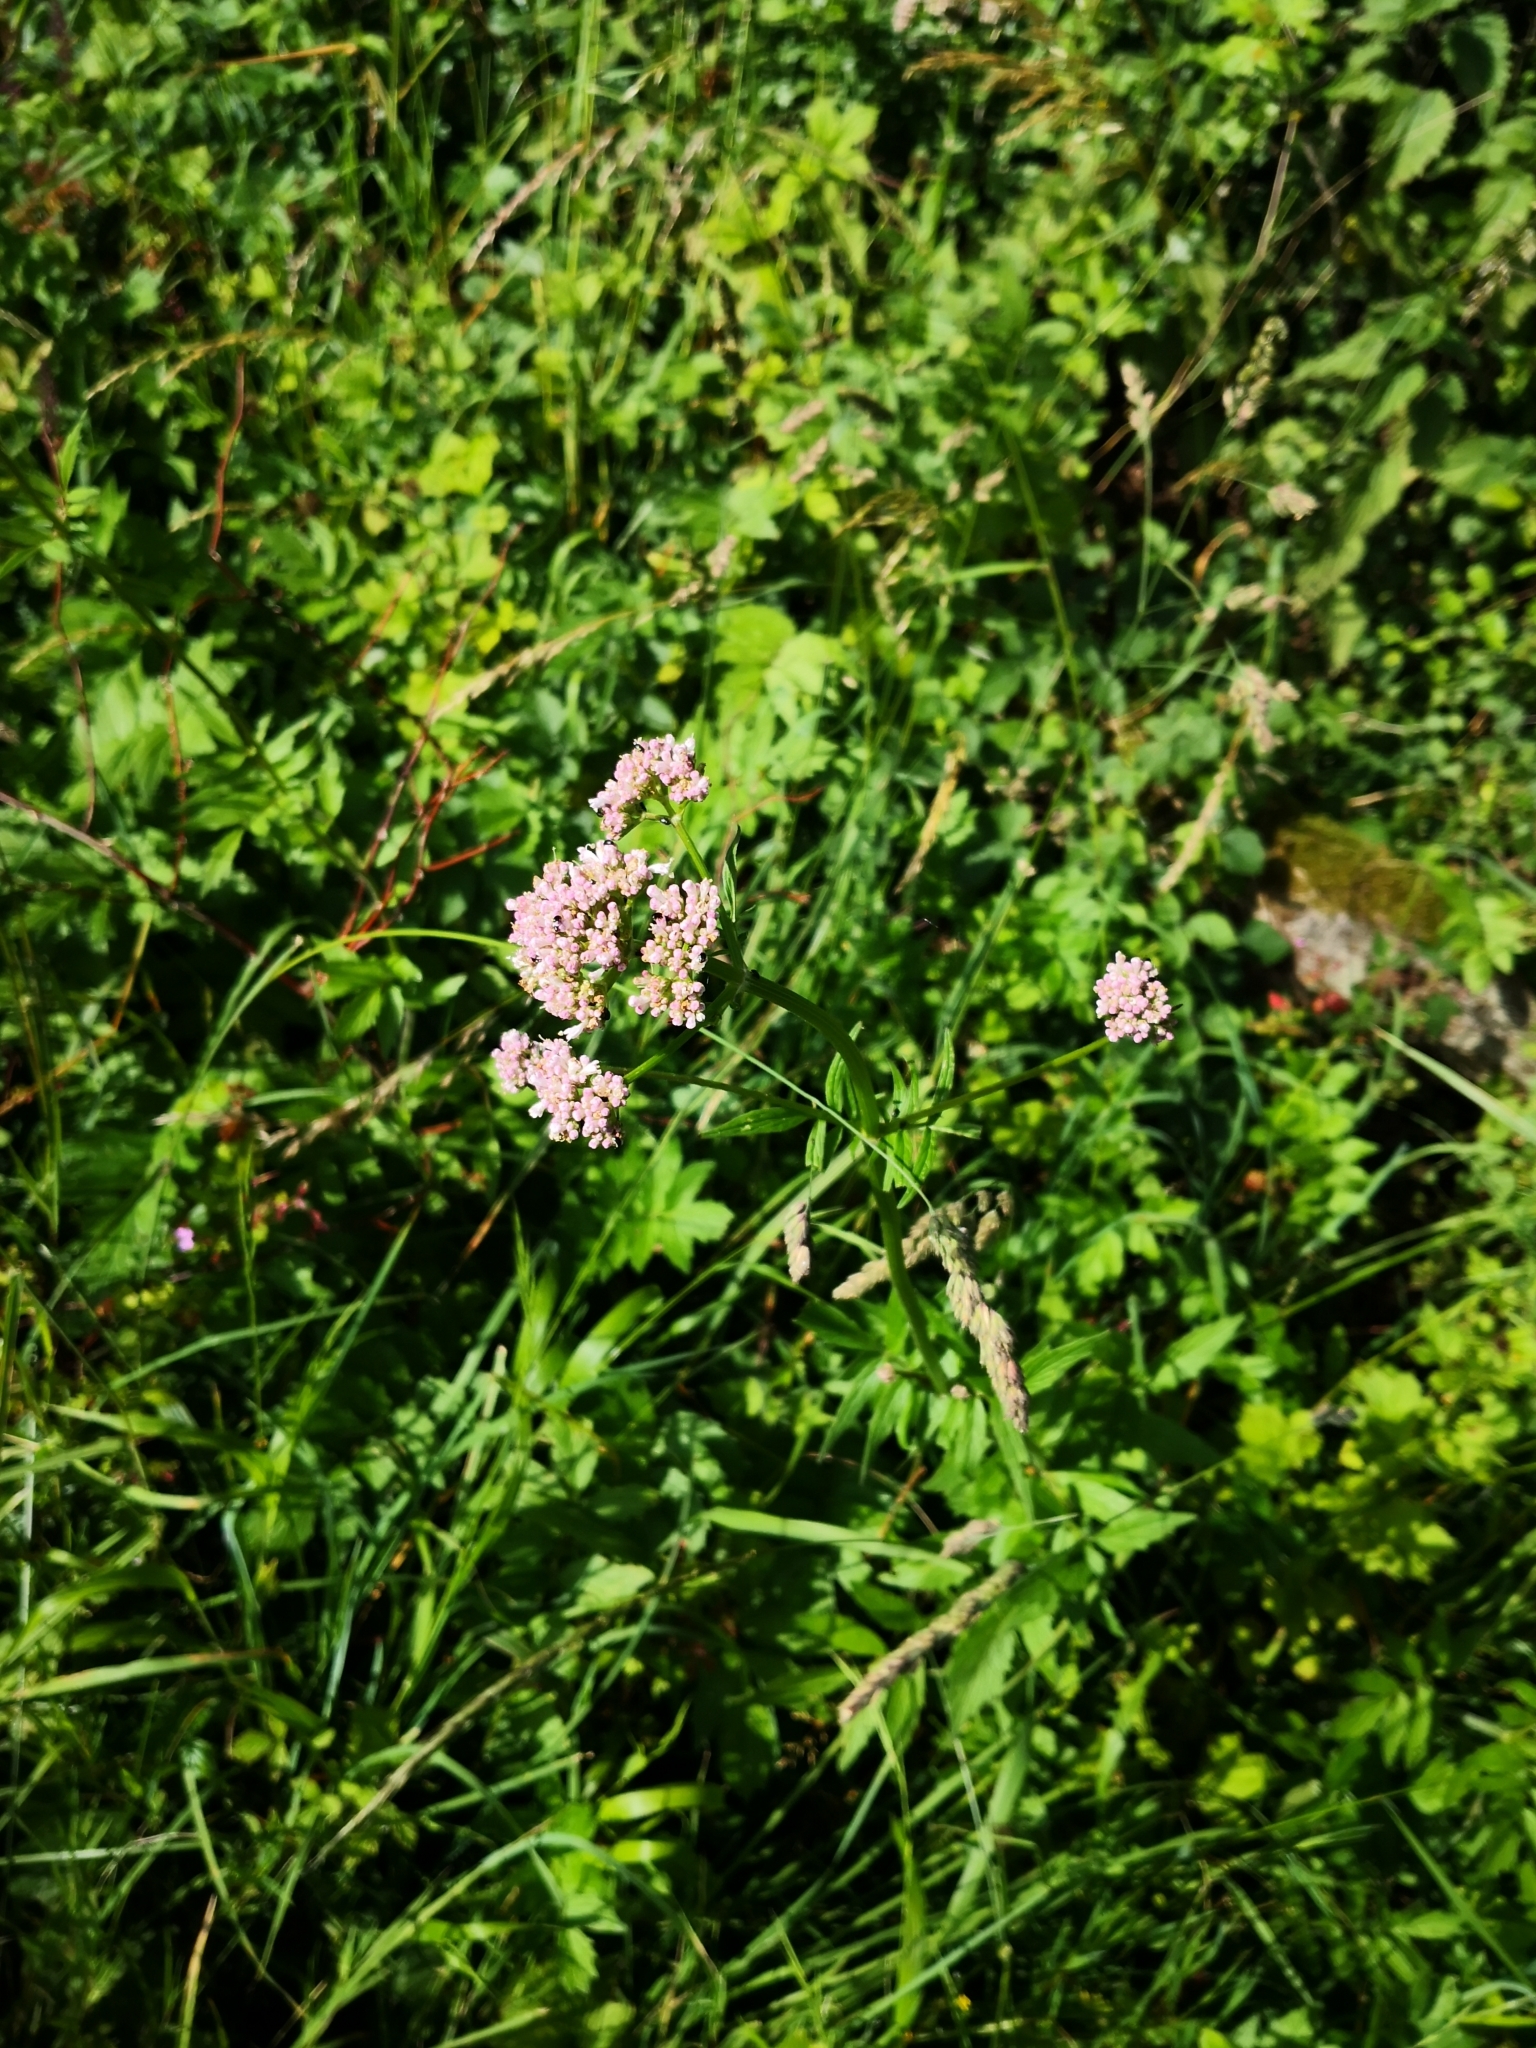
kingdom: Plantae
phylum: Tracheophyta
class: Magnoliopsida
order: Dipsacales
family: Caprifoliaceae
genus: Valeriana
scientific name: Valeriana officinalis
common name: Common valerian
